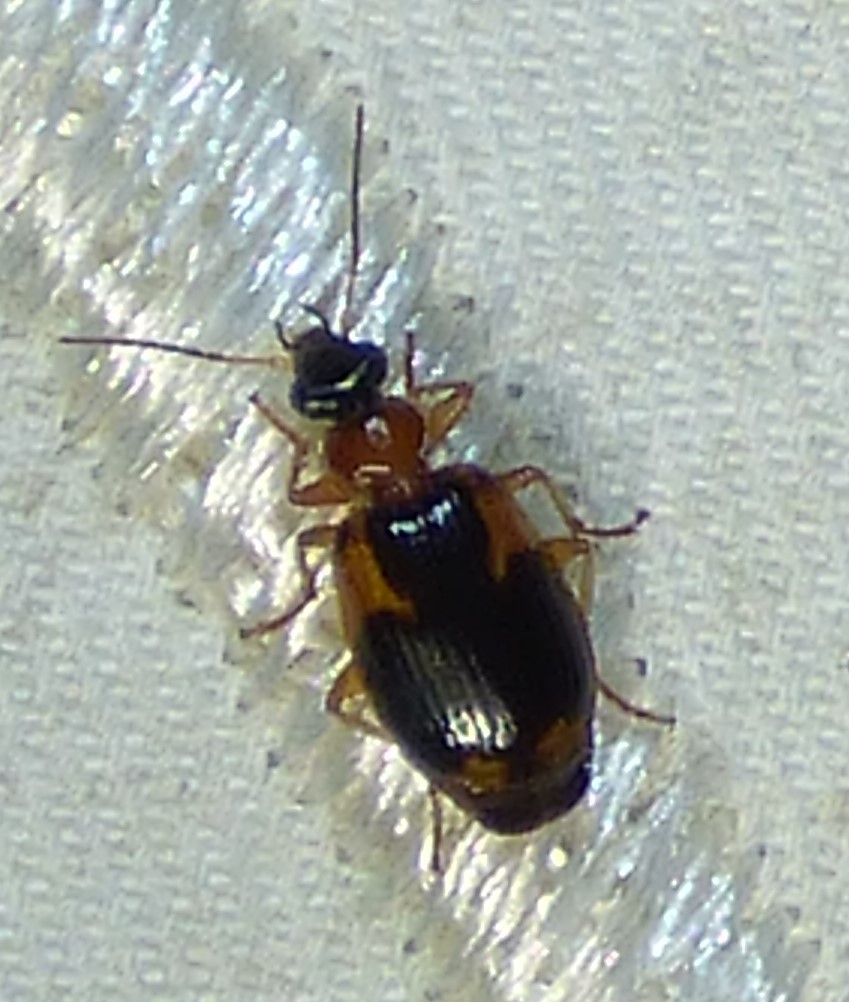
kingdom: Animalia
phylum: Arthropoda
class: Insecta
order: Coleoptera
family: Carabidae
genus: Lebia
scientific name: Lebia analis
